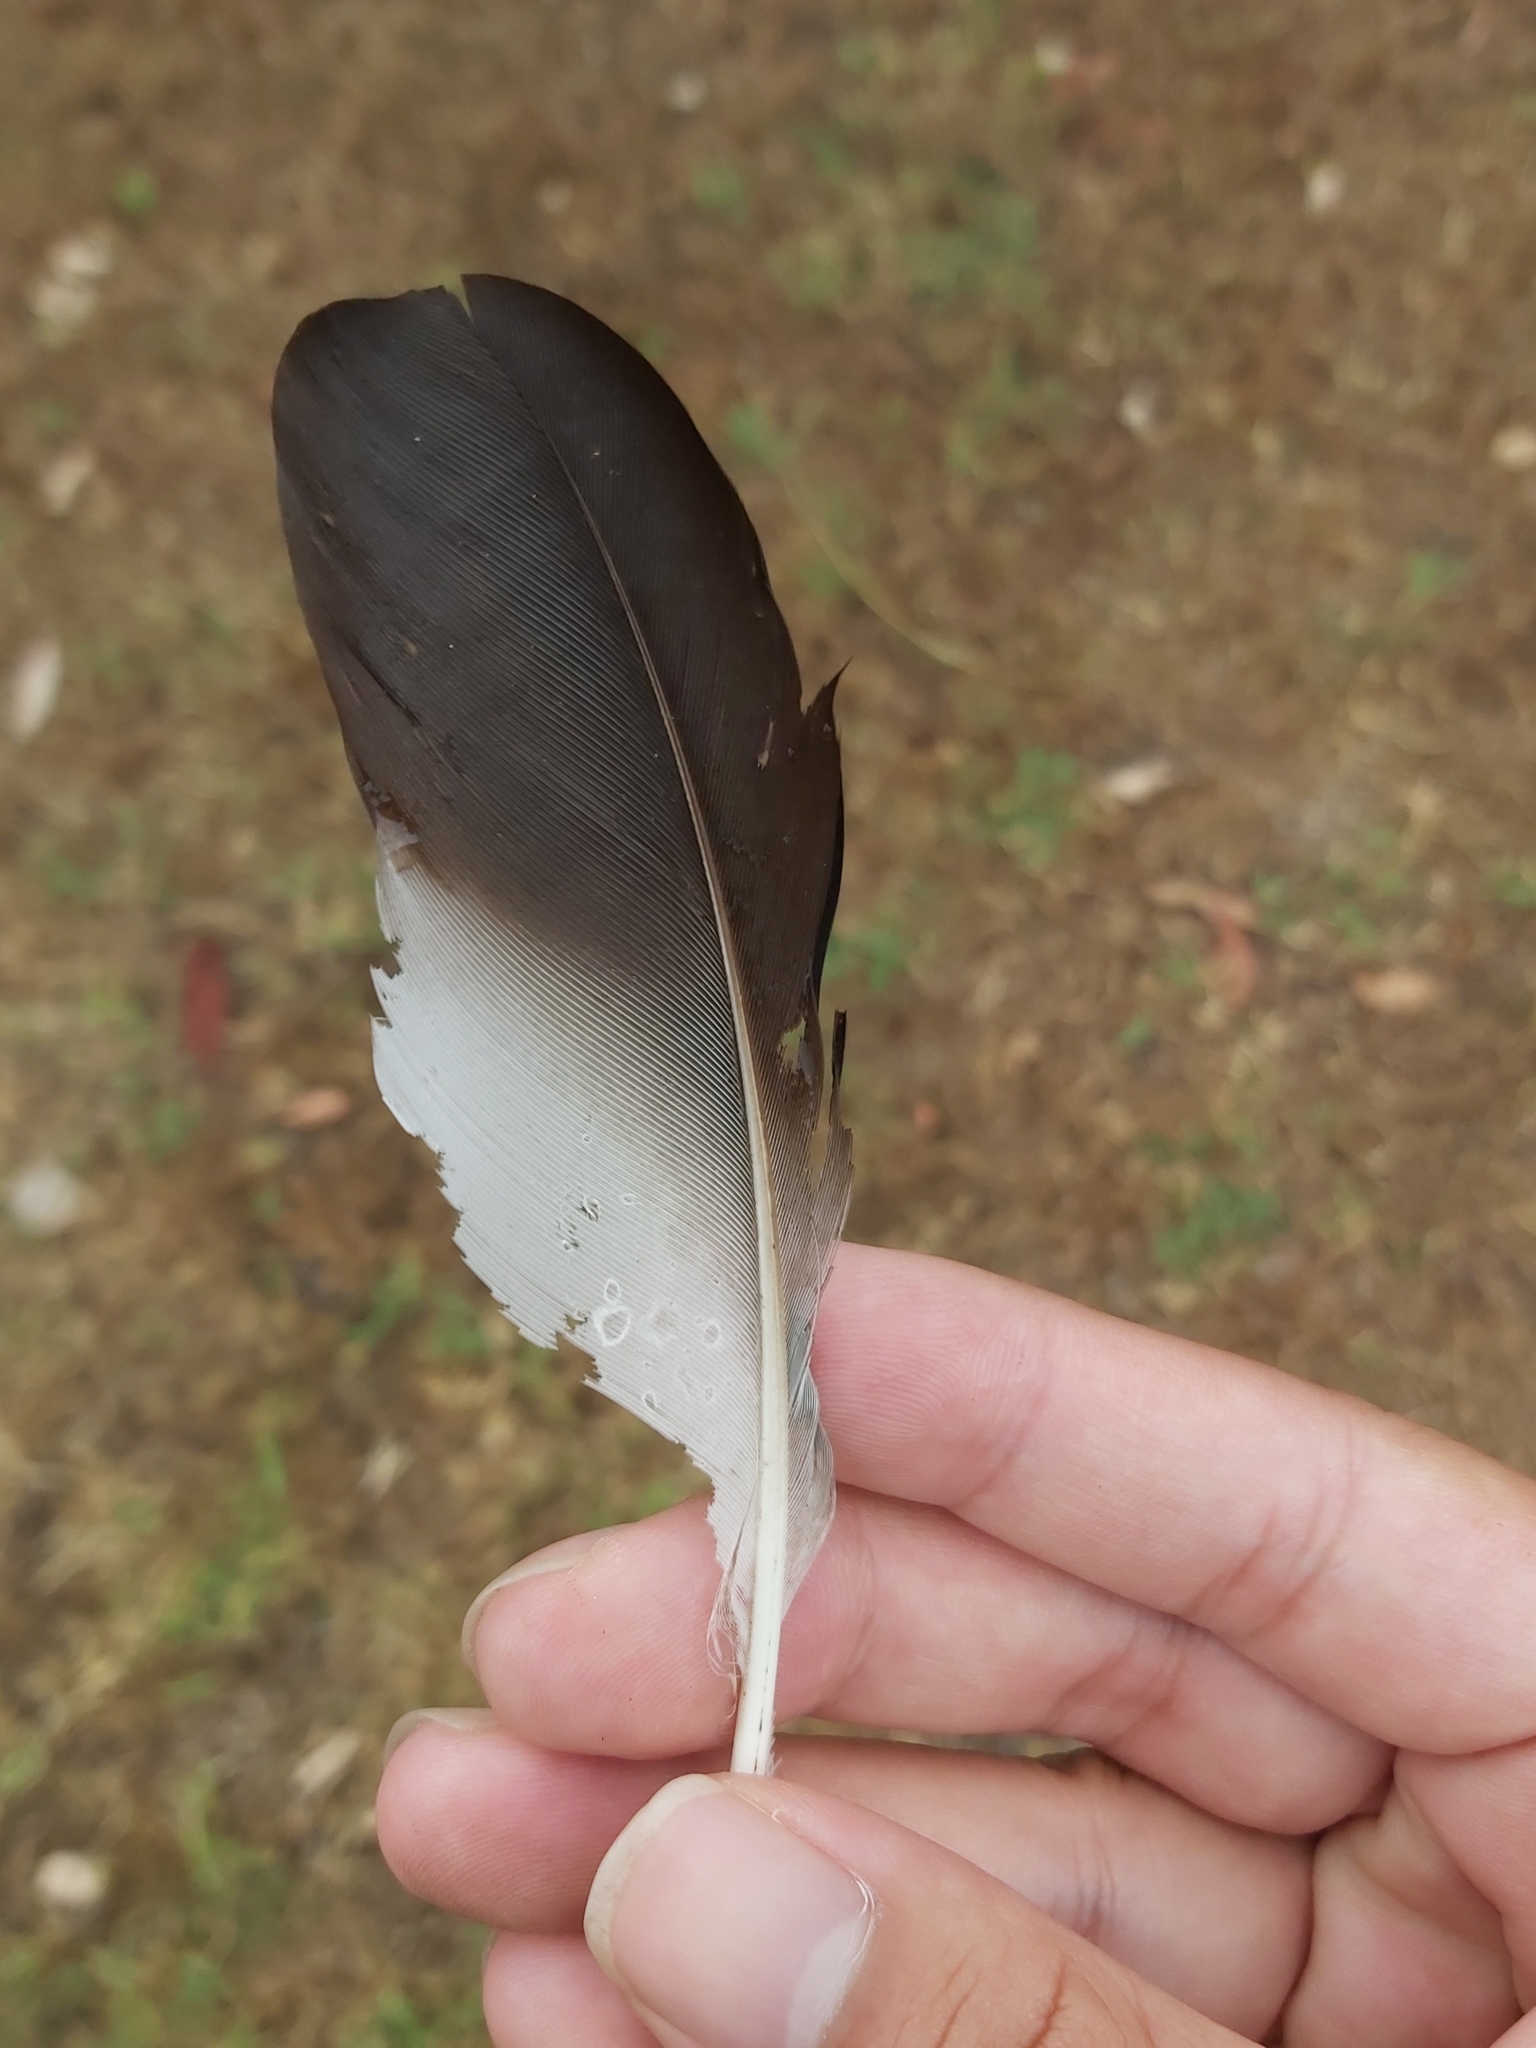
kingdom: Animalia
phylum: Chordata
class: Aves
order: Charadriiformes
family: Charadriidae
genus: Vanellus
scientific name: Vanellus miles
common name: Masked lapwing
